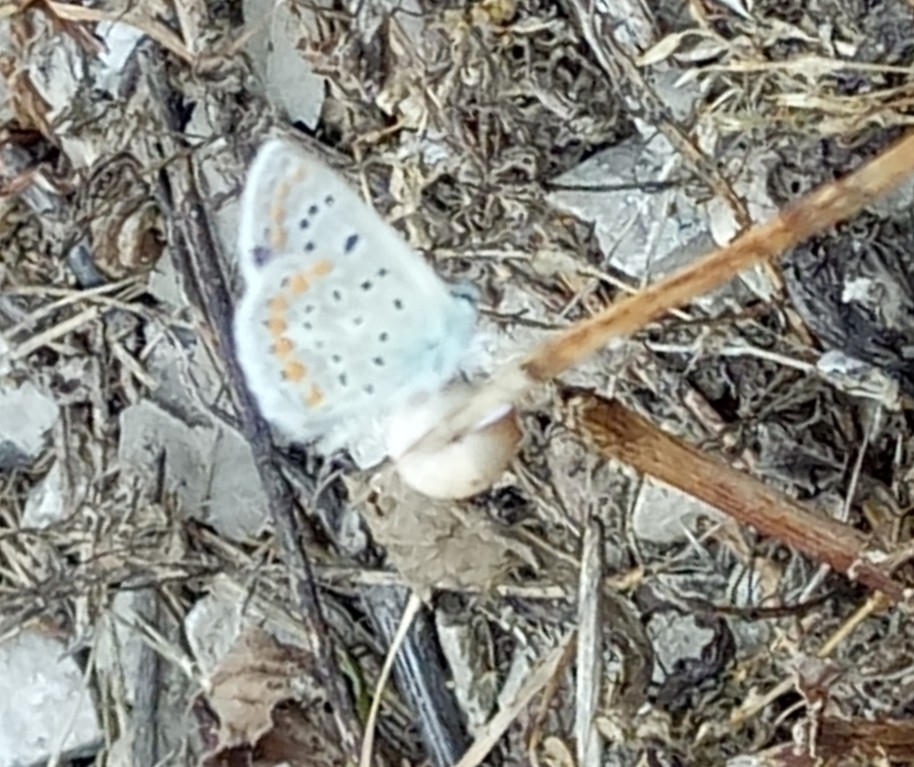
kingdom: Animalia
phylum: Arthropoda
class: Insecta
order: Lepidoptera
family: Lycaenidae
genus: Polyommatus
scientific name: Polyommatus celina
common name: Austaut's blue
